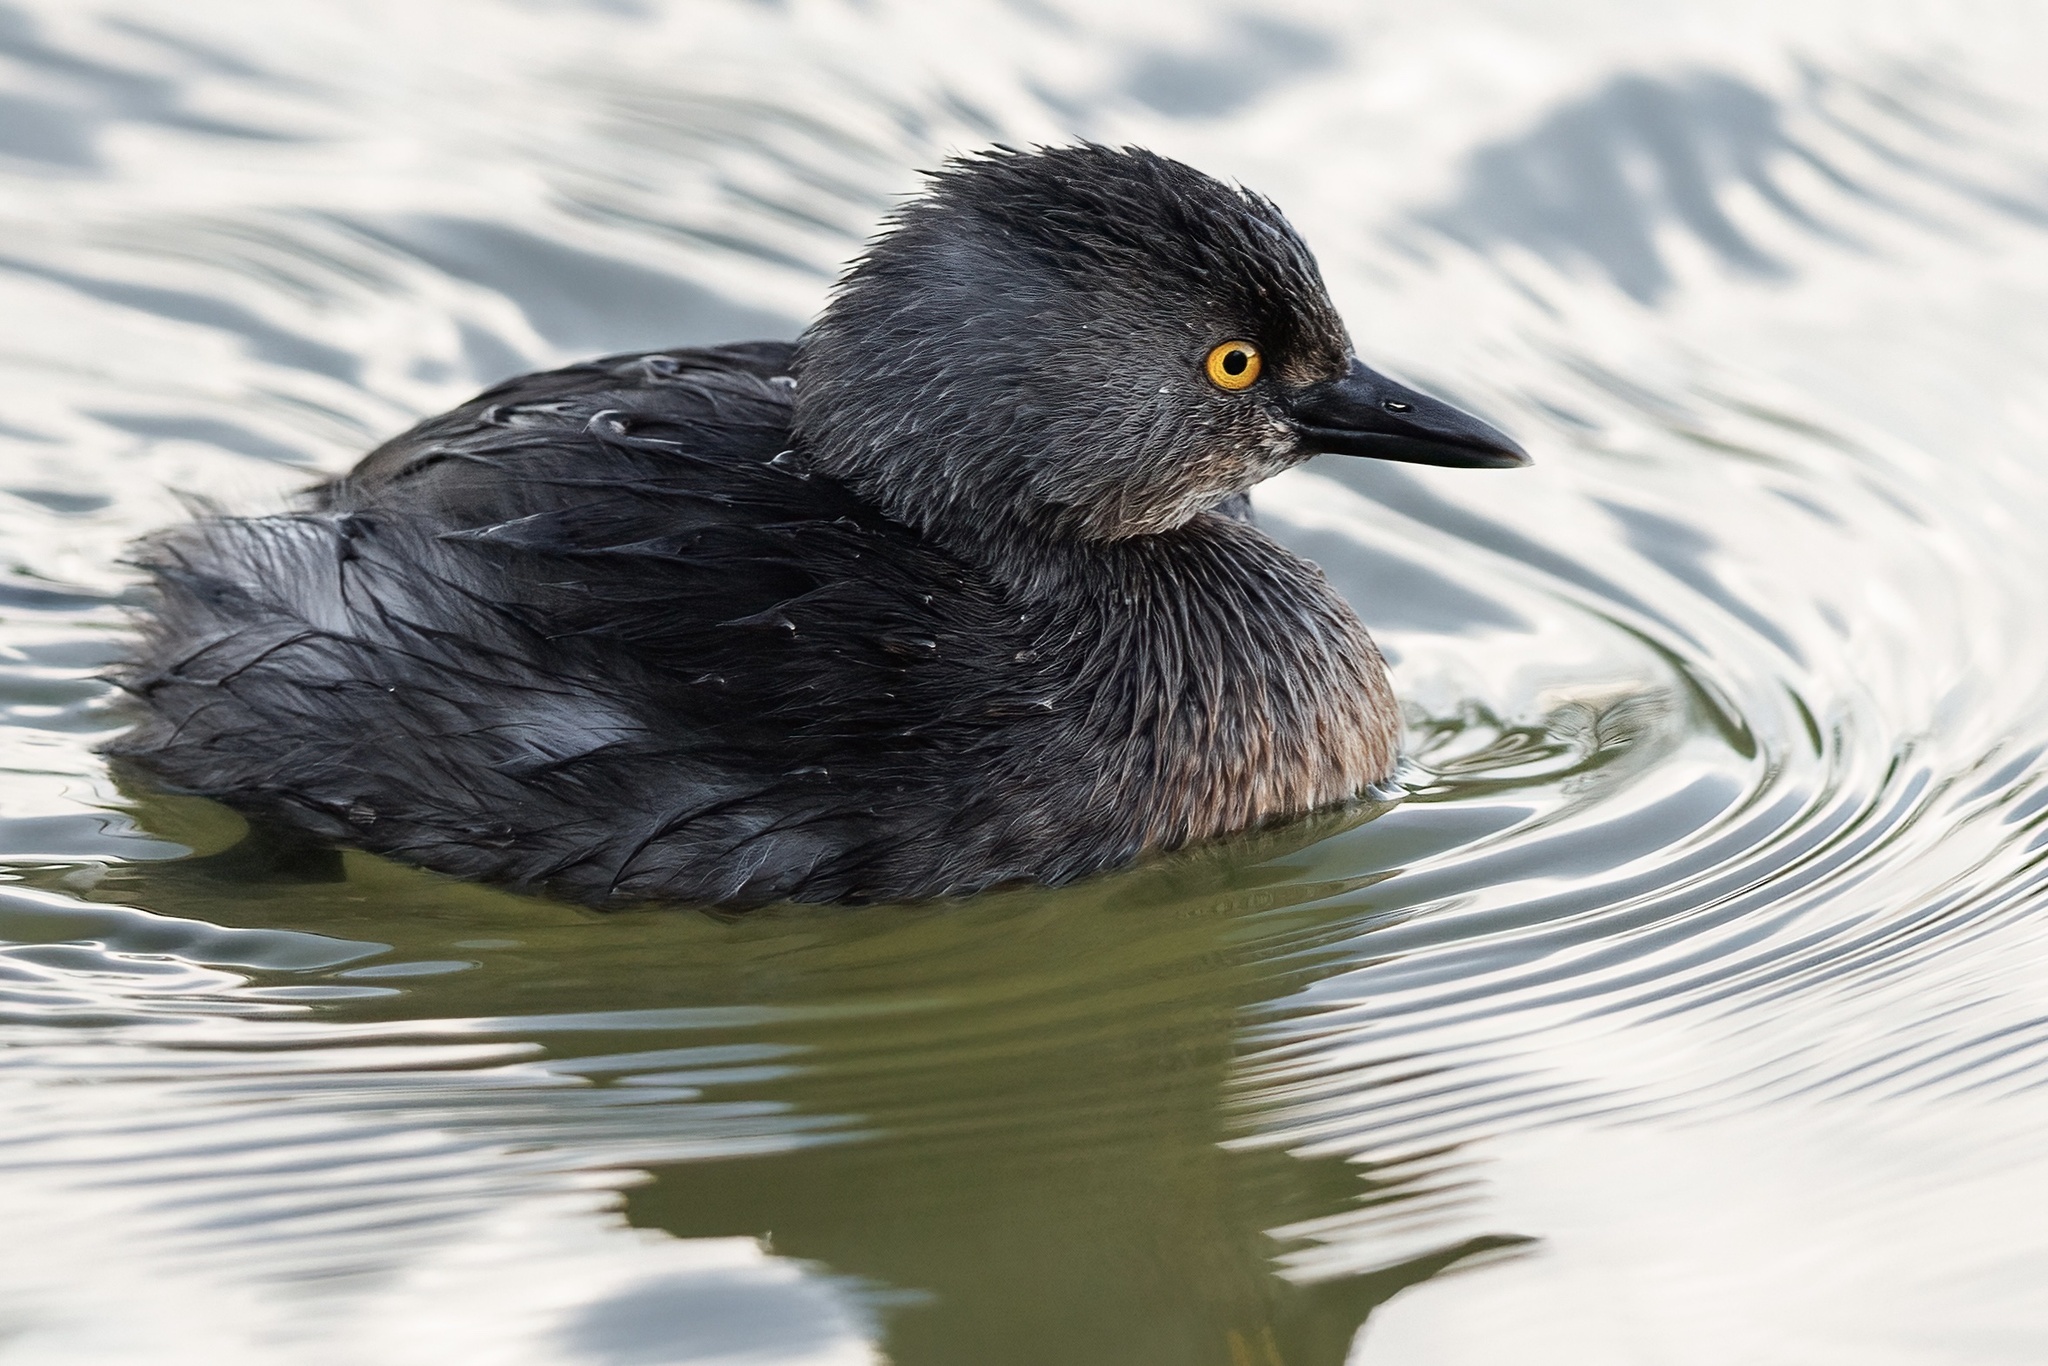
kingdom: Animalia
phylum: Chordata
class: Aves
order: Podicipediformes
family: Podicipedidae
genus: Tachybaptus
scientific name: Tachybaptus dominicus
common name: Least grebe
